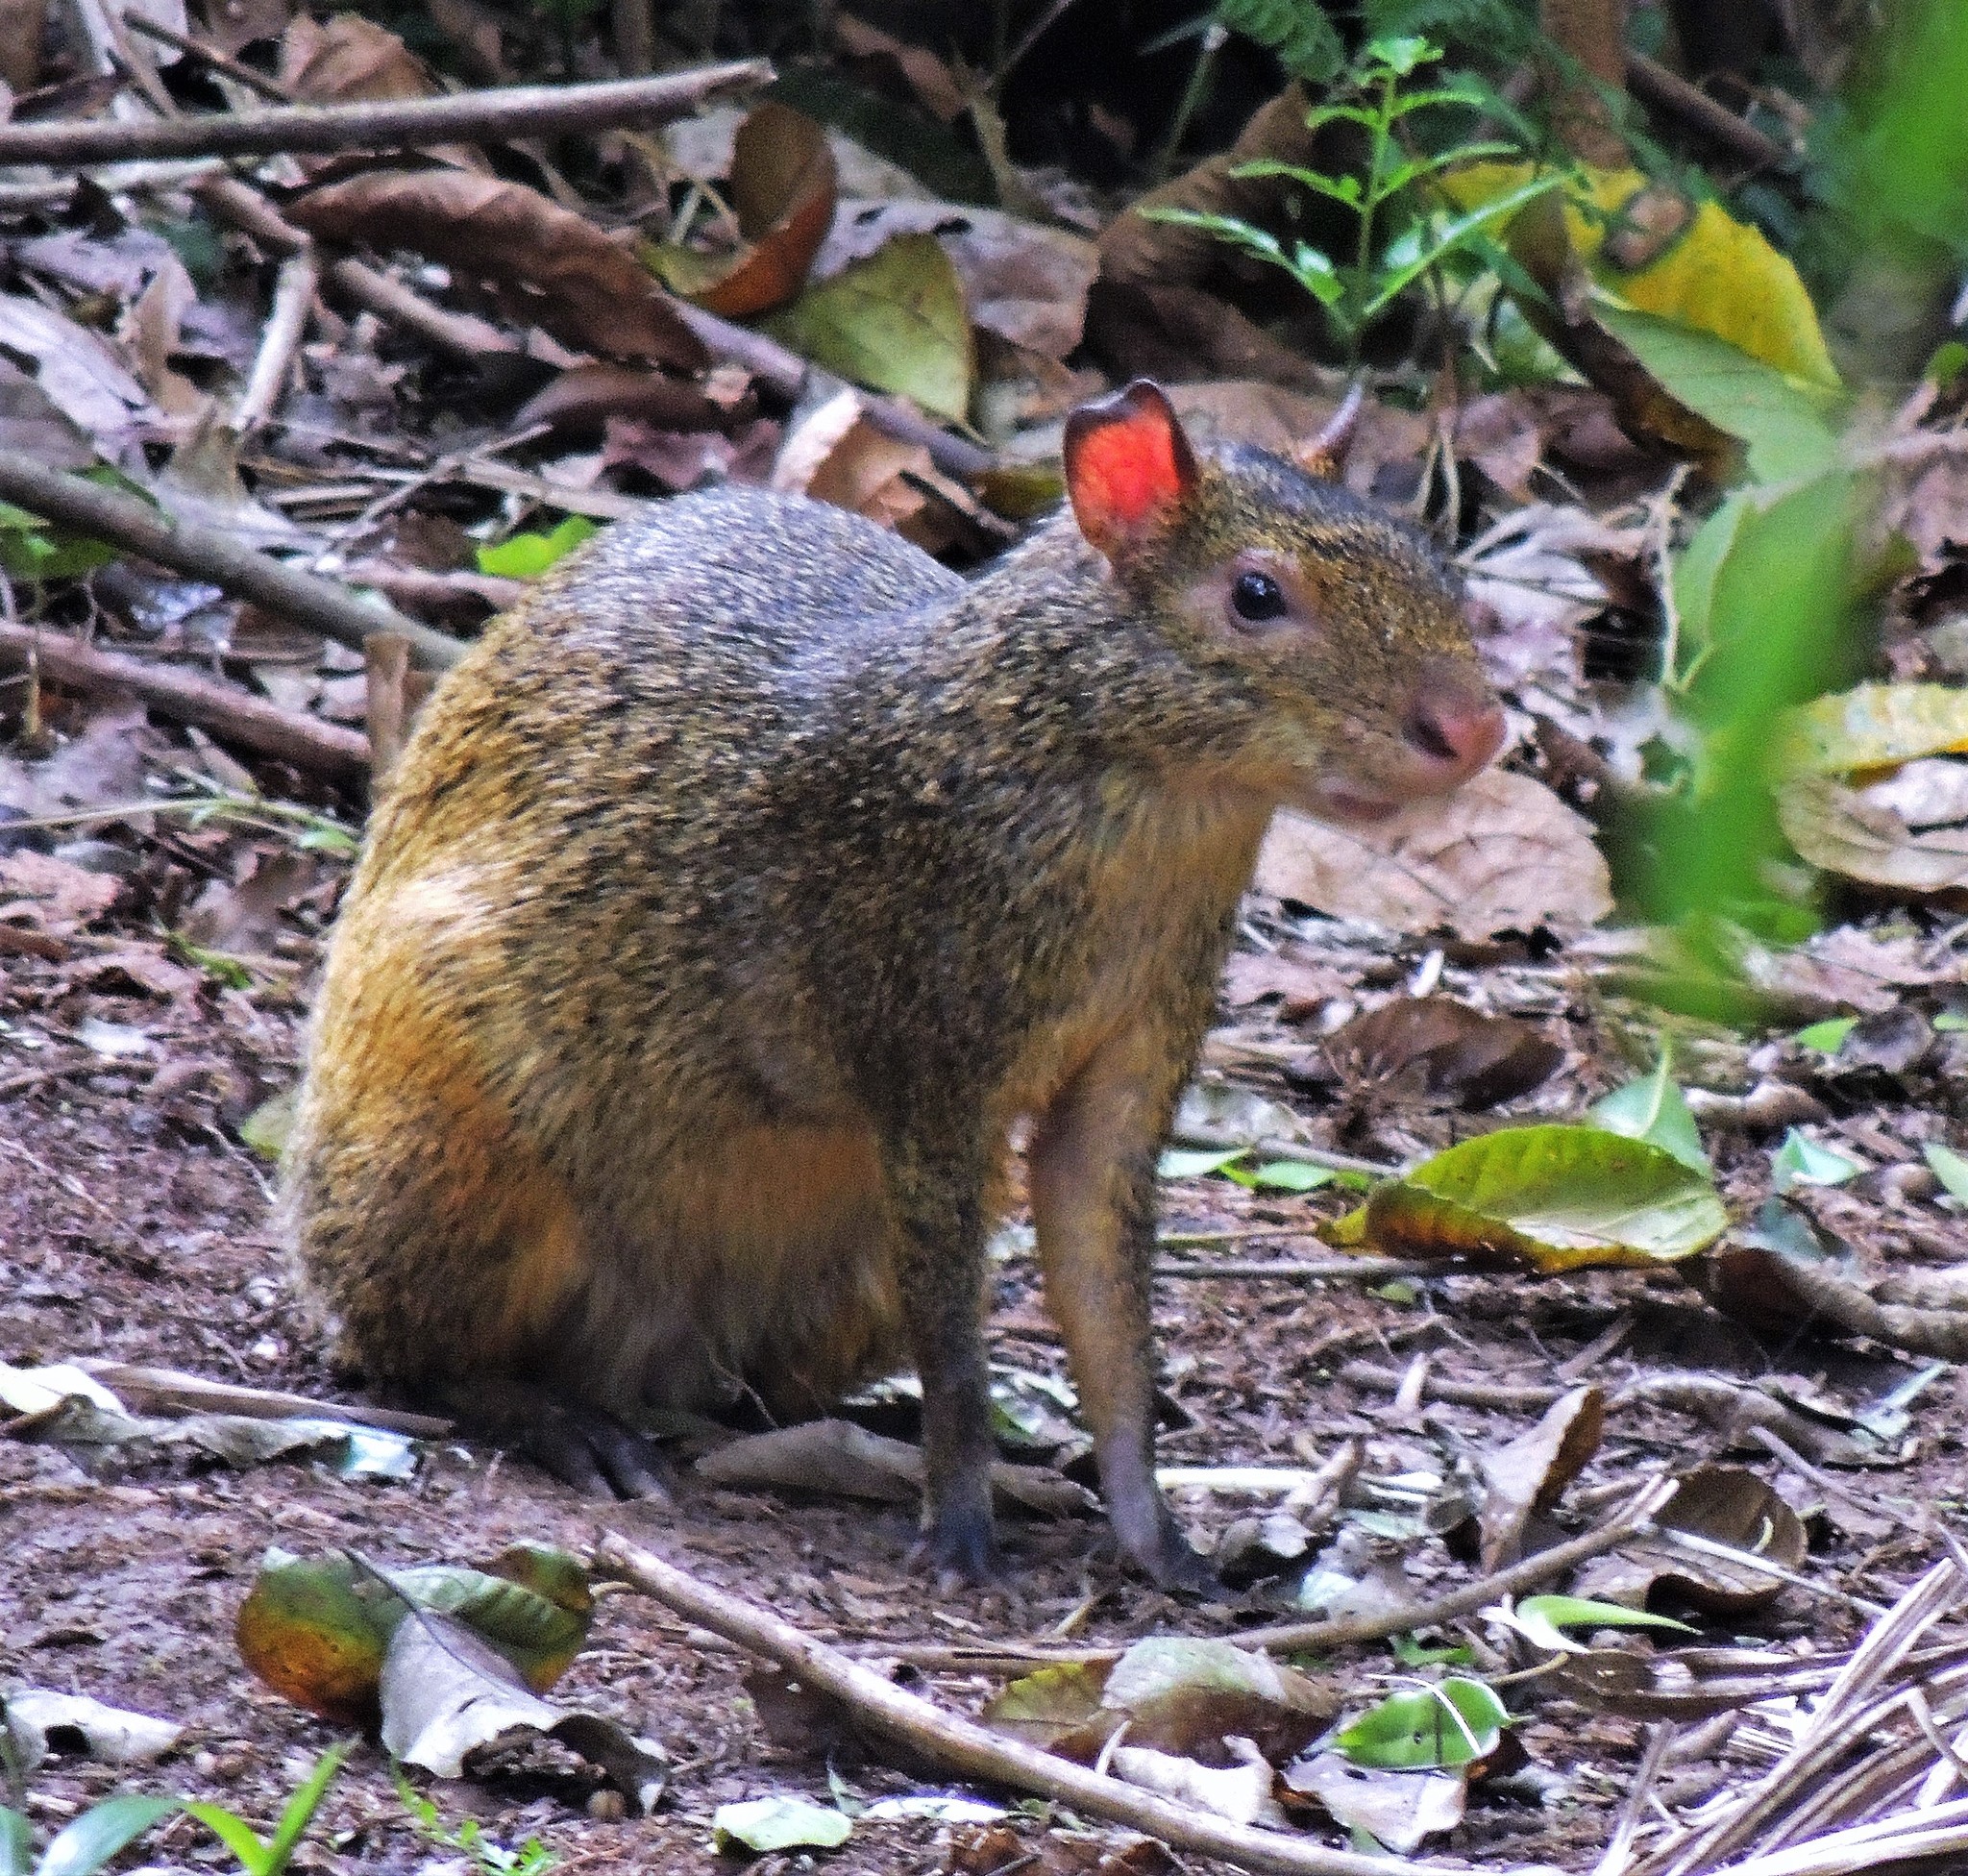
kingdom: Animalia
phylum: Chordata
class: Mammalia
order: Rodentia
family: Dasyproctidae
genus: Dasyprocta
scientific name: Dasyprocta azarae
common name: Azara's agouti
